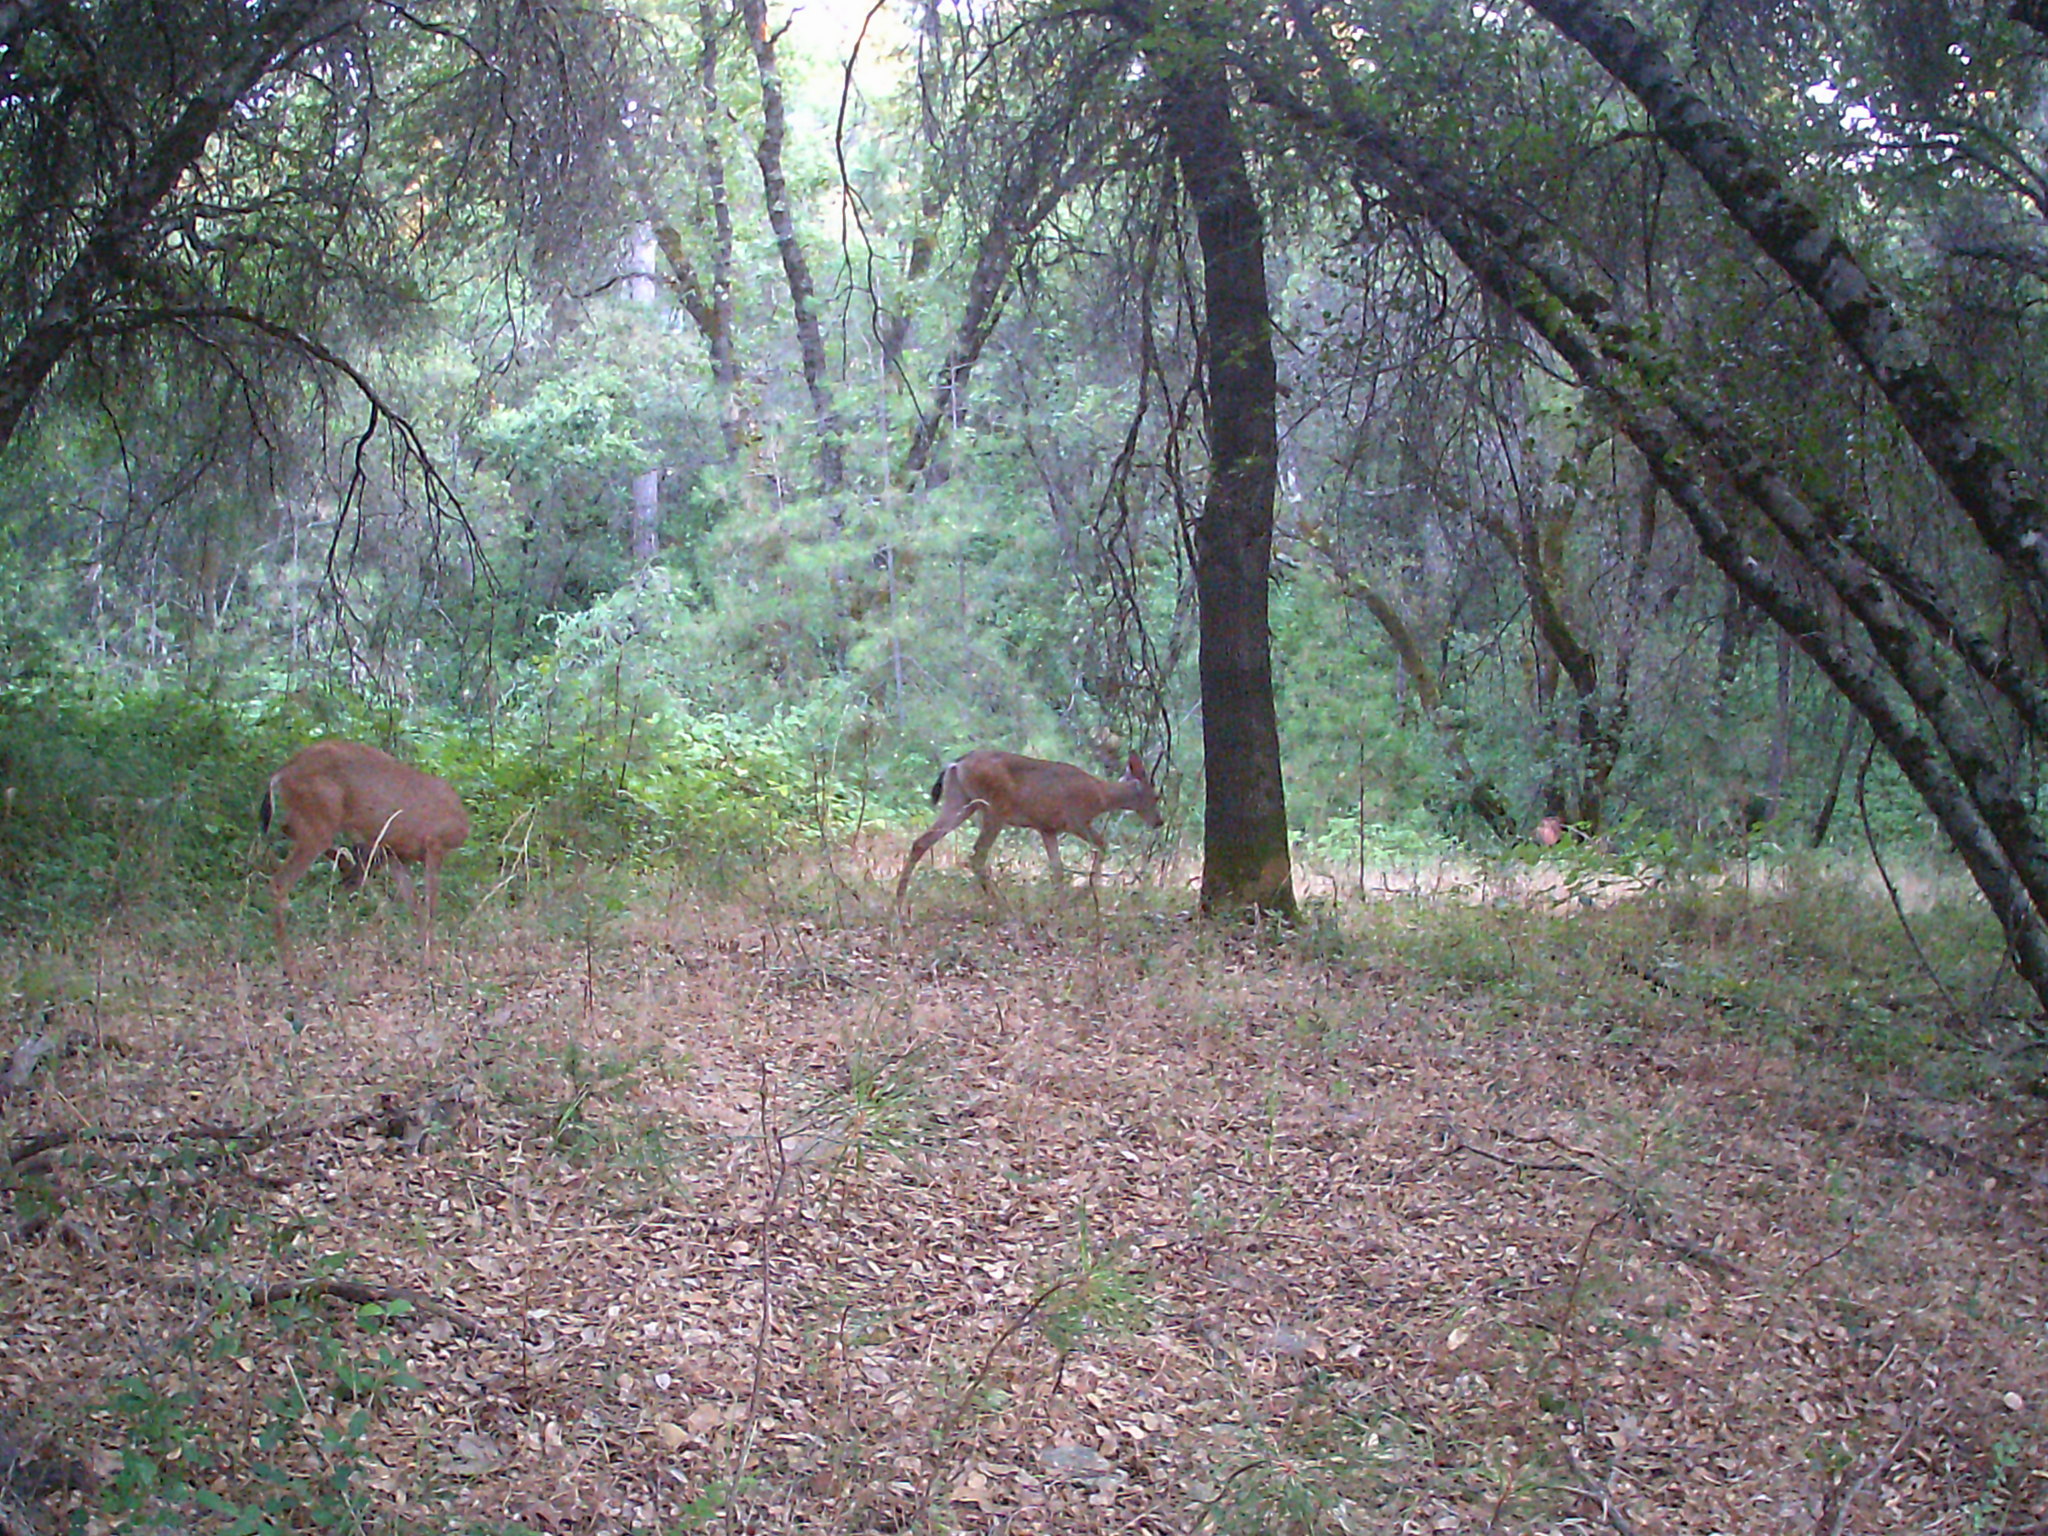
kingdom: Animalia
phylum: Chordata
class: Mammalia
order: Artiodactyla
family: Cervidae
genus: Odocoileus
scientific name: Odocoileus hemionus
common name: Mule deer
